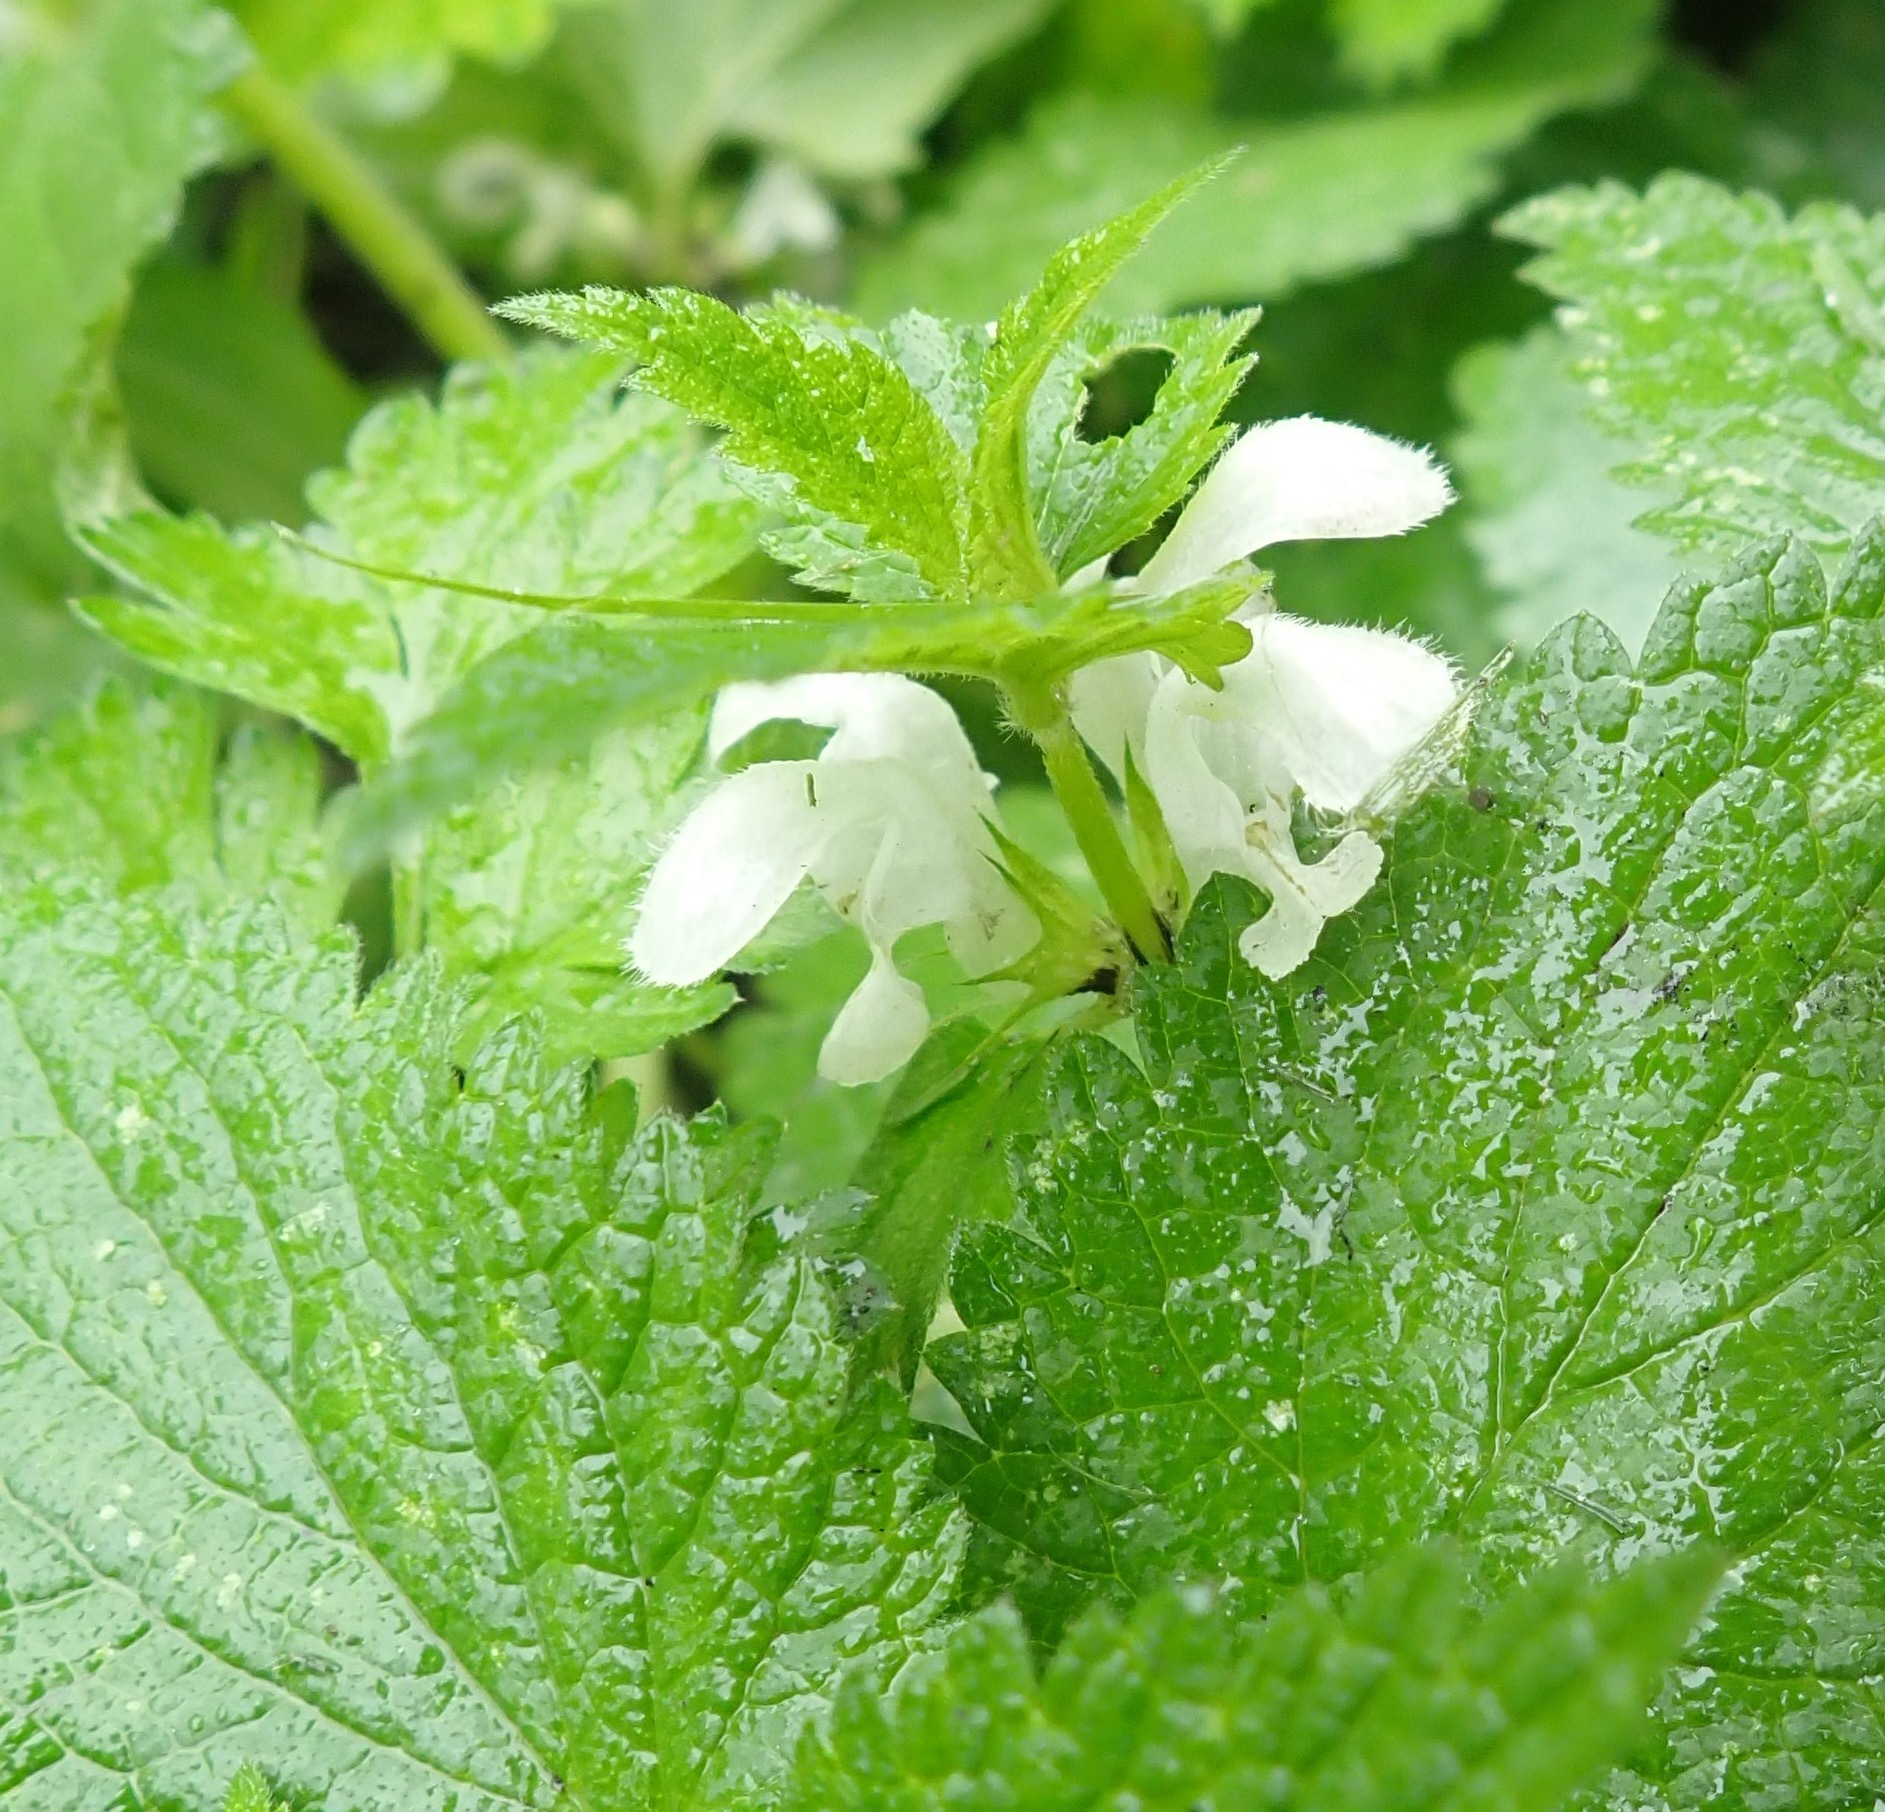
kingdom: Plantae
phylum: Tracheophyta
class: Magnoliopsida
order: Lamiales
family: Lamiaceae
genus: Lamium
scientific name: Lamium album
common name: White dead-nettle
